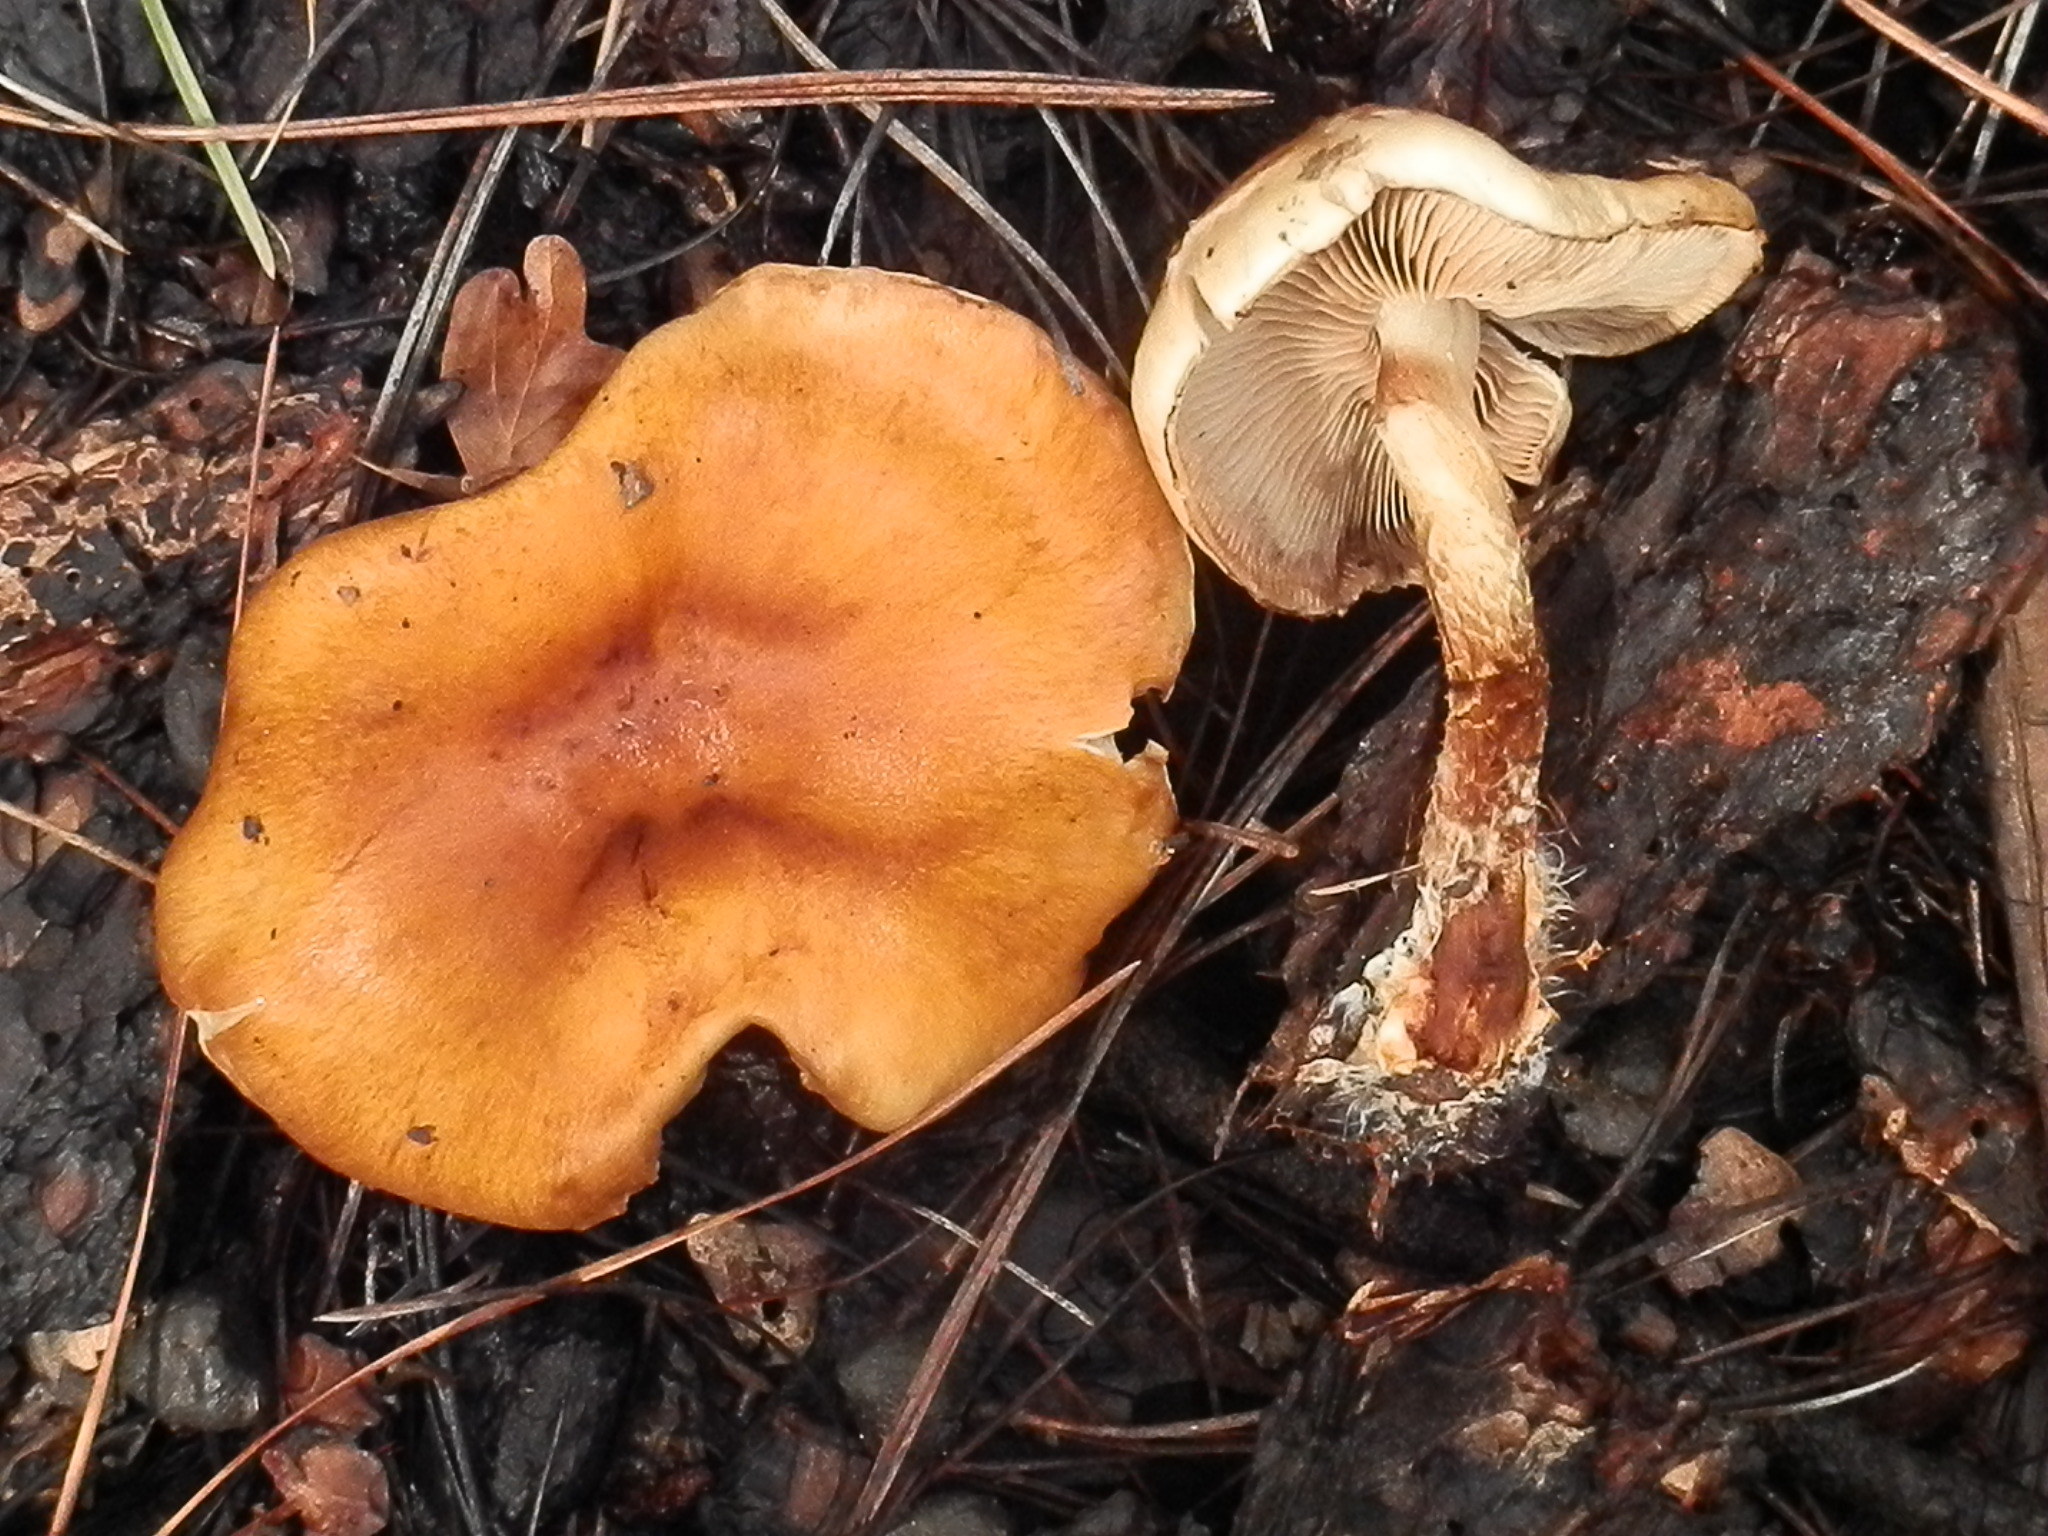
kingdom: Fungi
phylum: Basidiomycota
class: Agaricomycetes
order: Agaricales
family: Strophariaceae
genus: Pholiota
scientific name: Pholiota rufodisca
